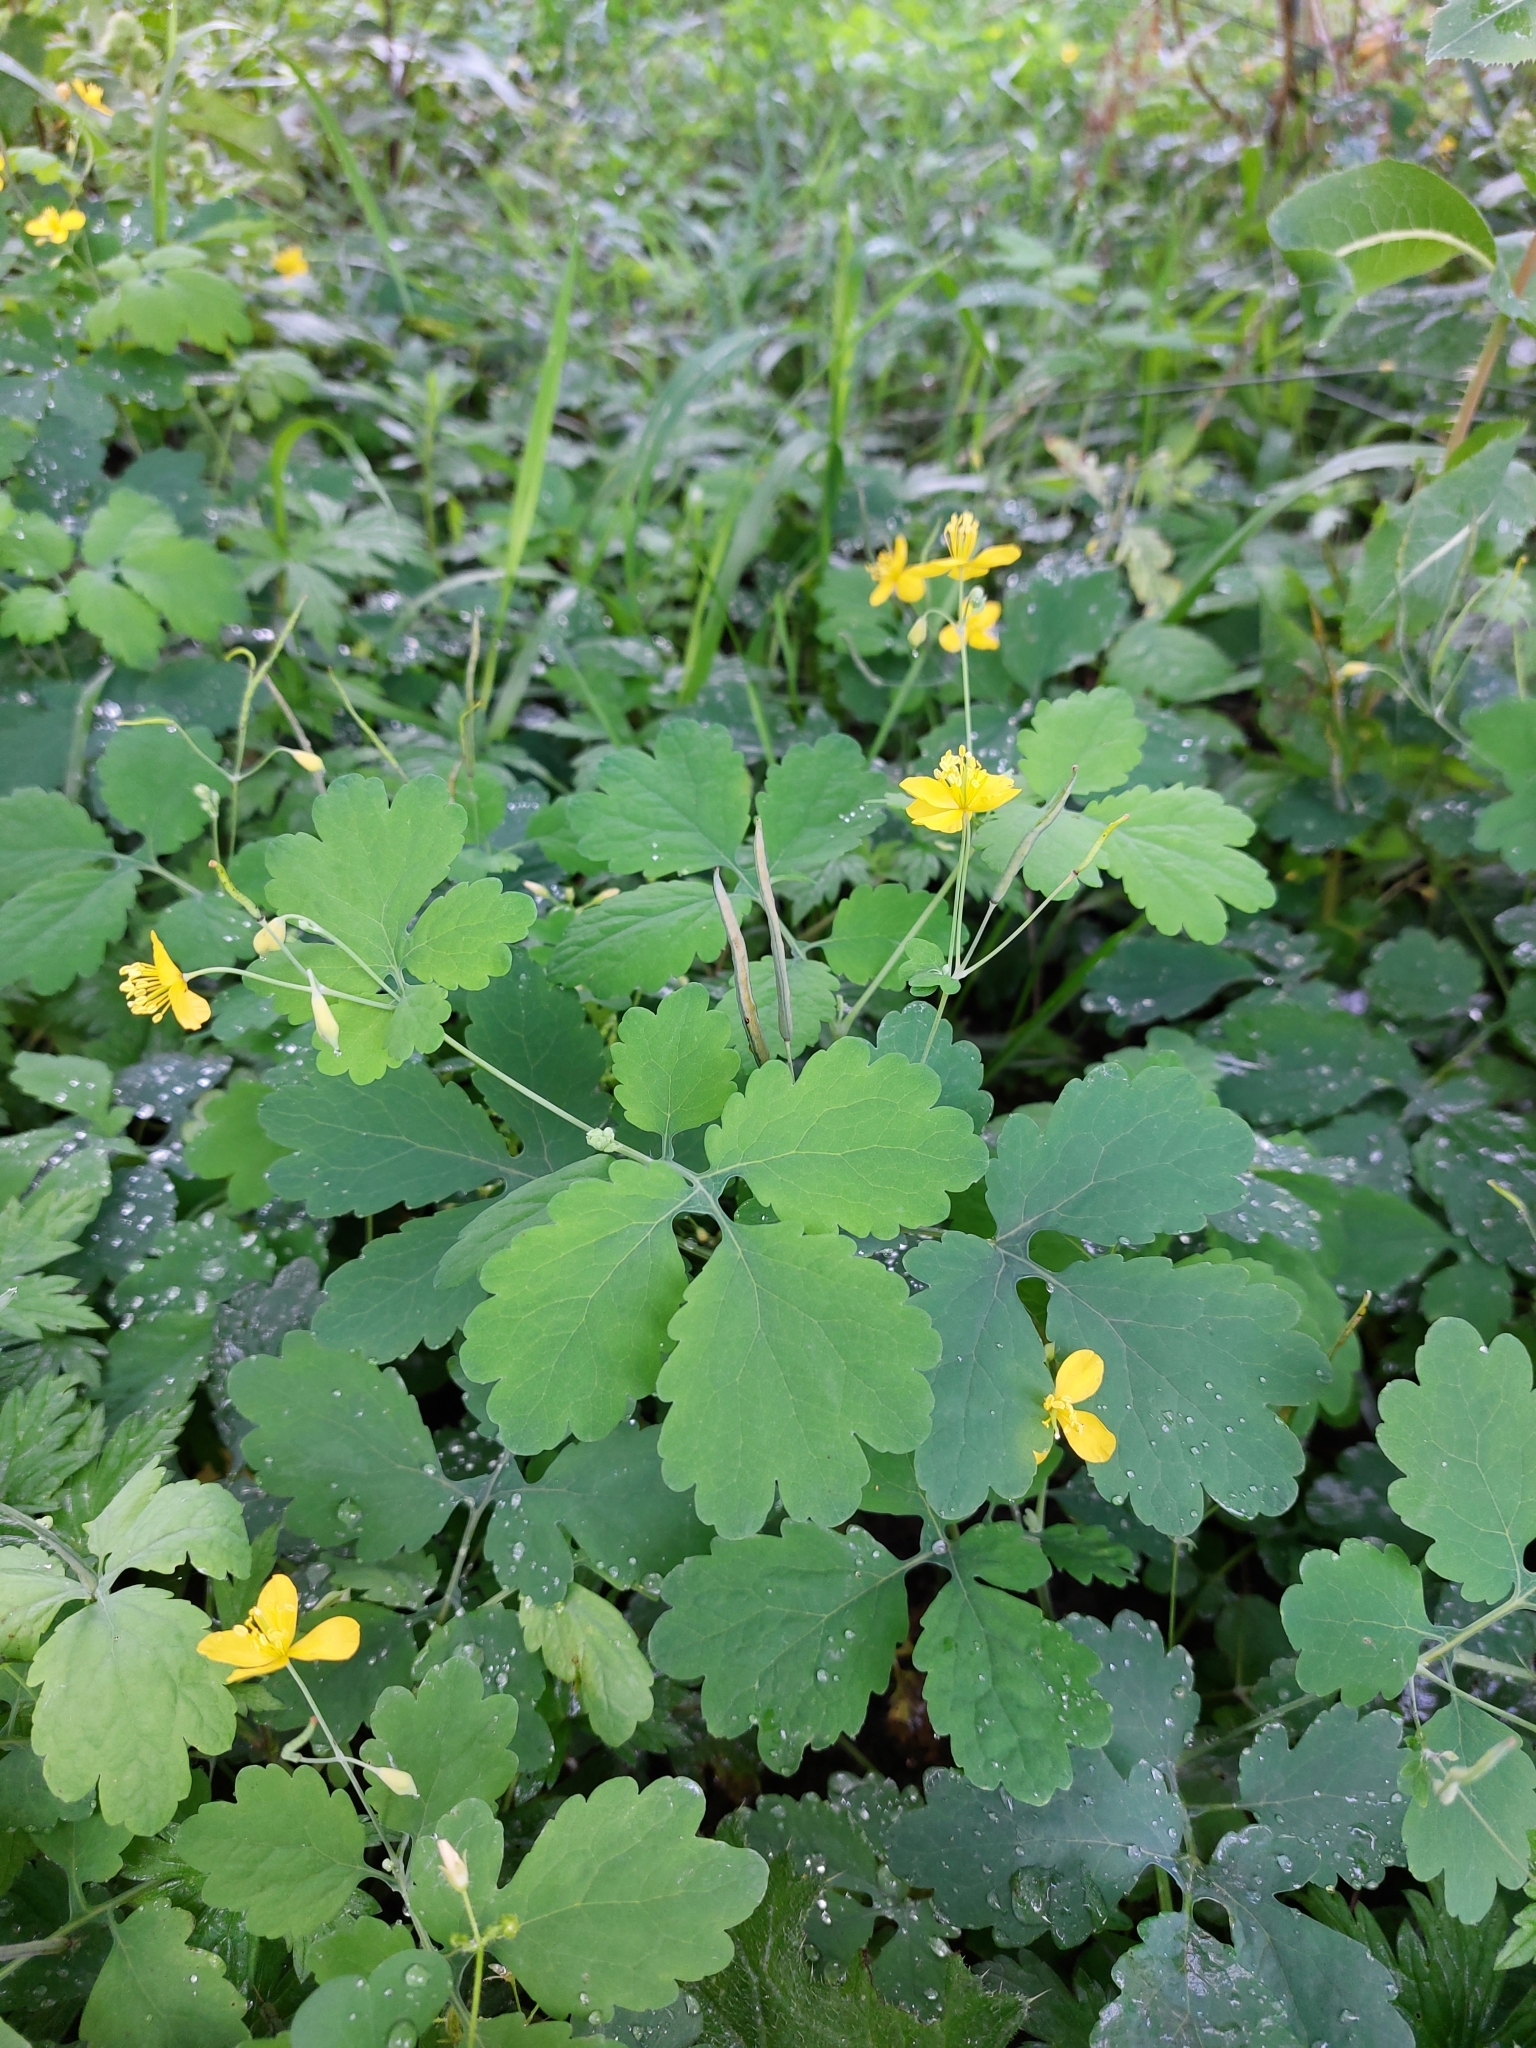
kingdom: Plantae
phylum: Tracheophyta
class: Magnoliopsida
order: Ranunculales
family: Papaveraceae
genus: Chelidonium
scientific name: Chelidonium majus
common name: Greater celandine
